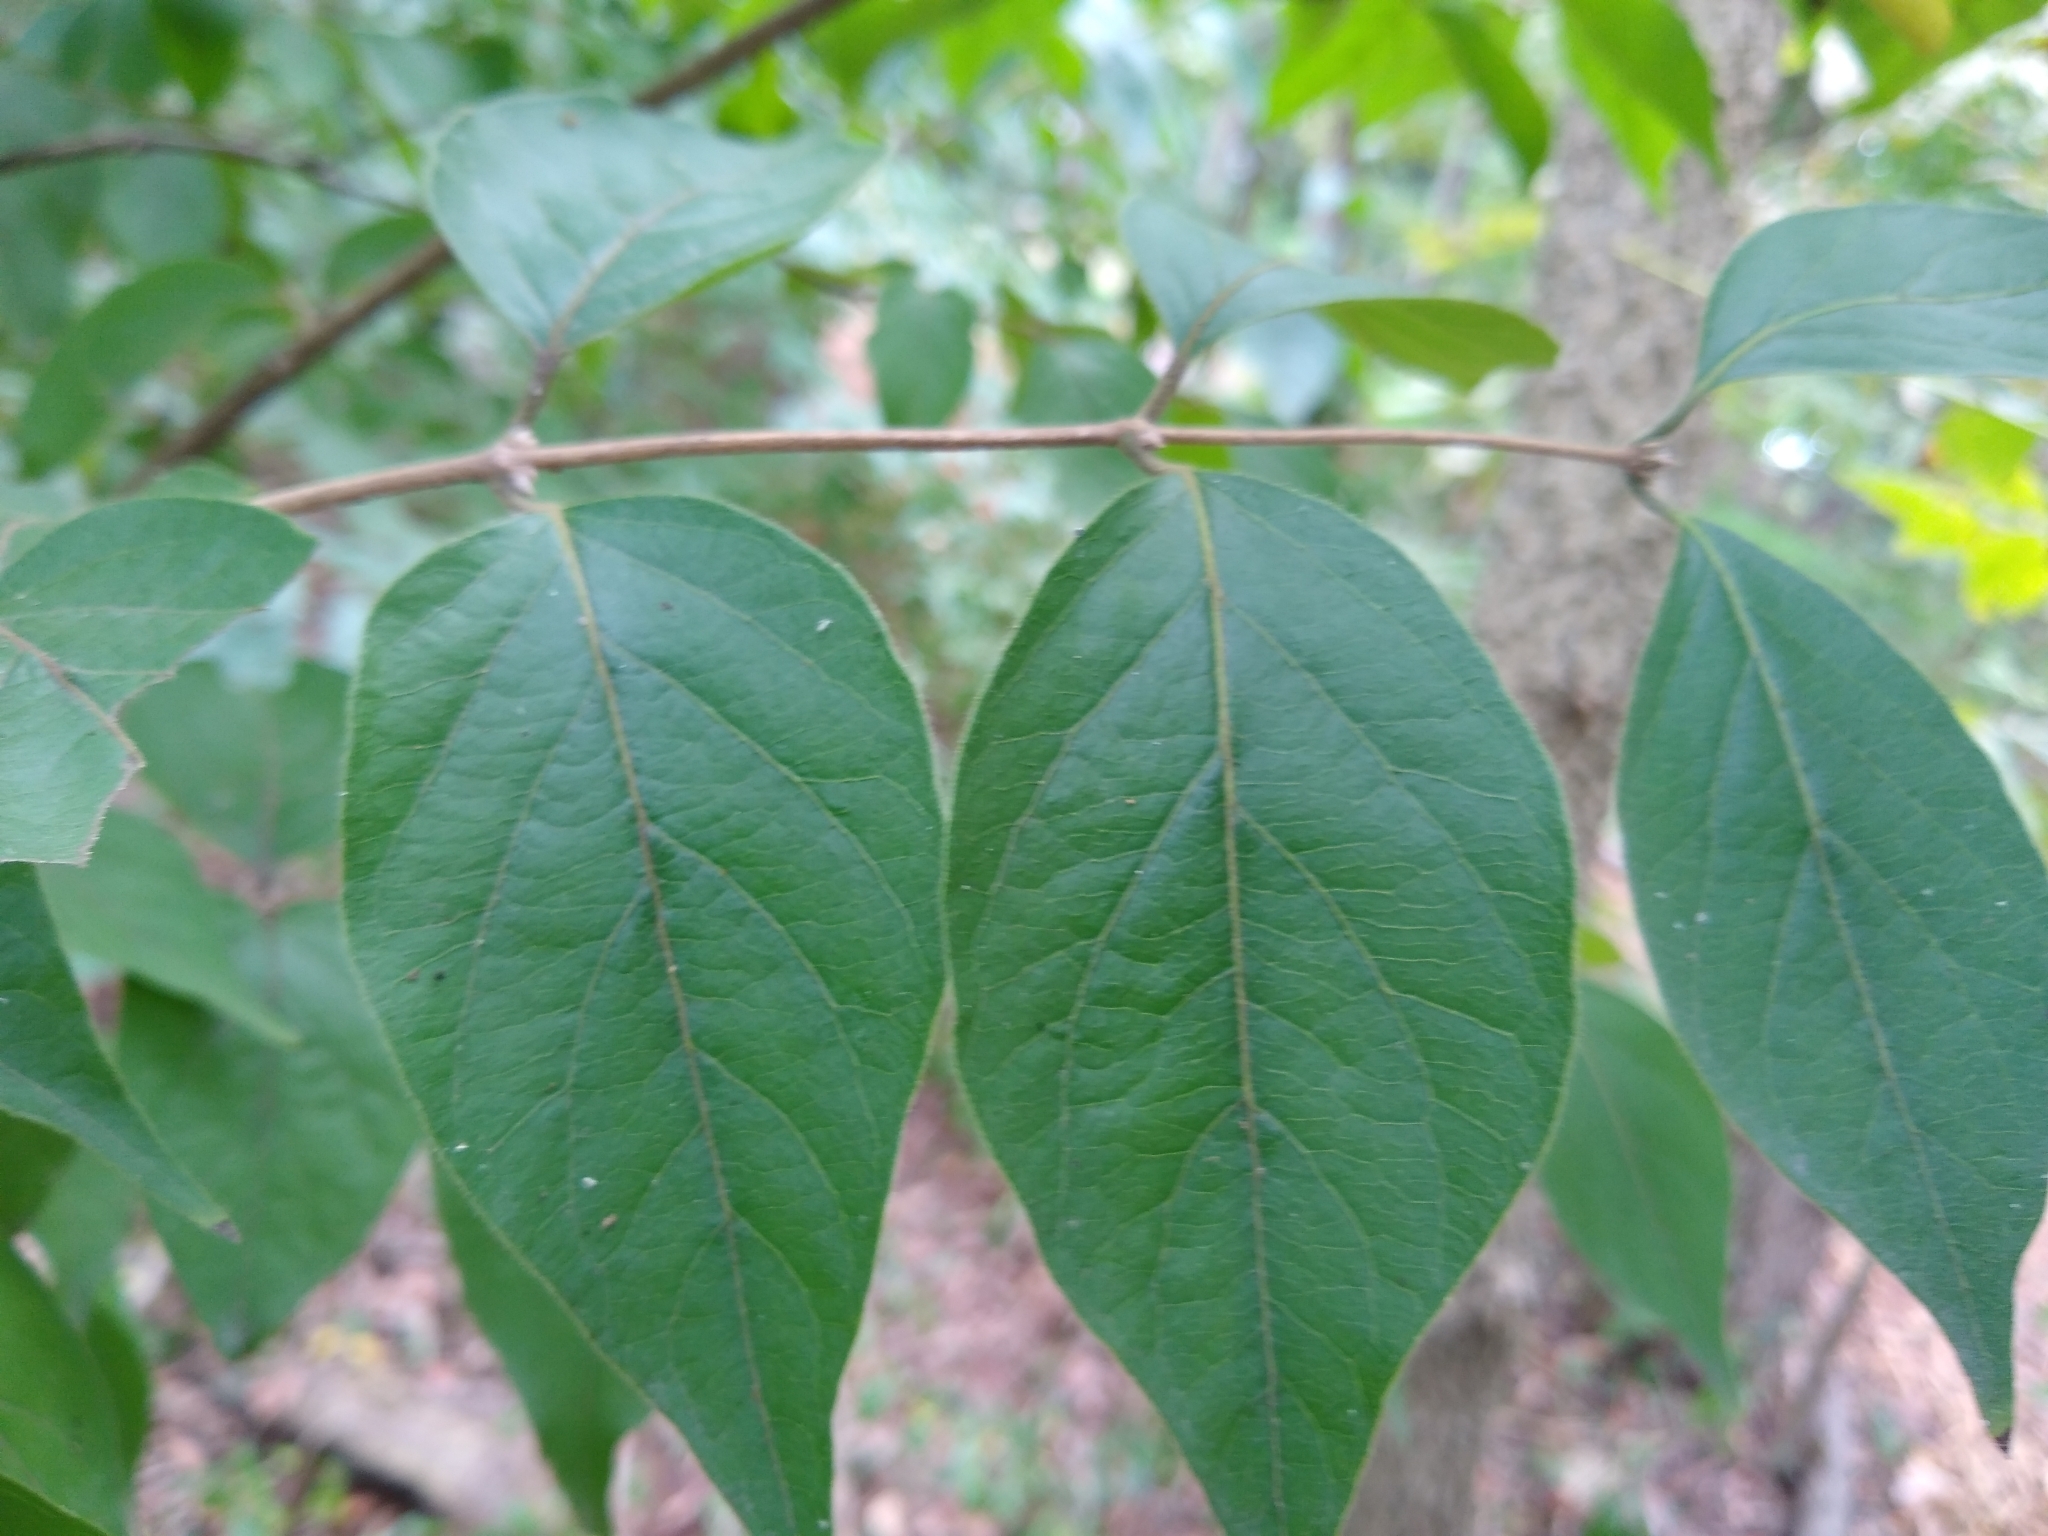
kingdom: Plantae
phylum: Tracheophyta
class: Magnoliopsida
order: Dipsacales
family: Caprifoliaceae
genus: Lonicera
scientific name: Lonicera maackii
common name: Amur honeysuckle
